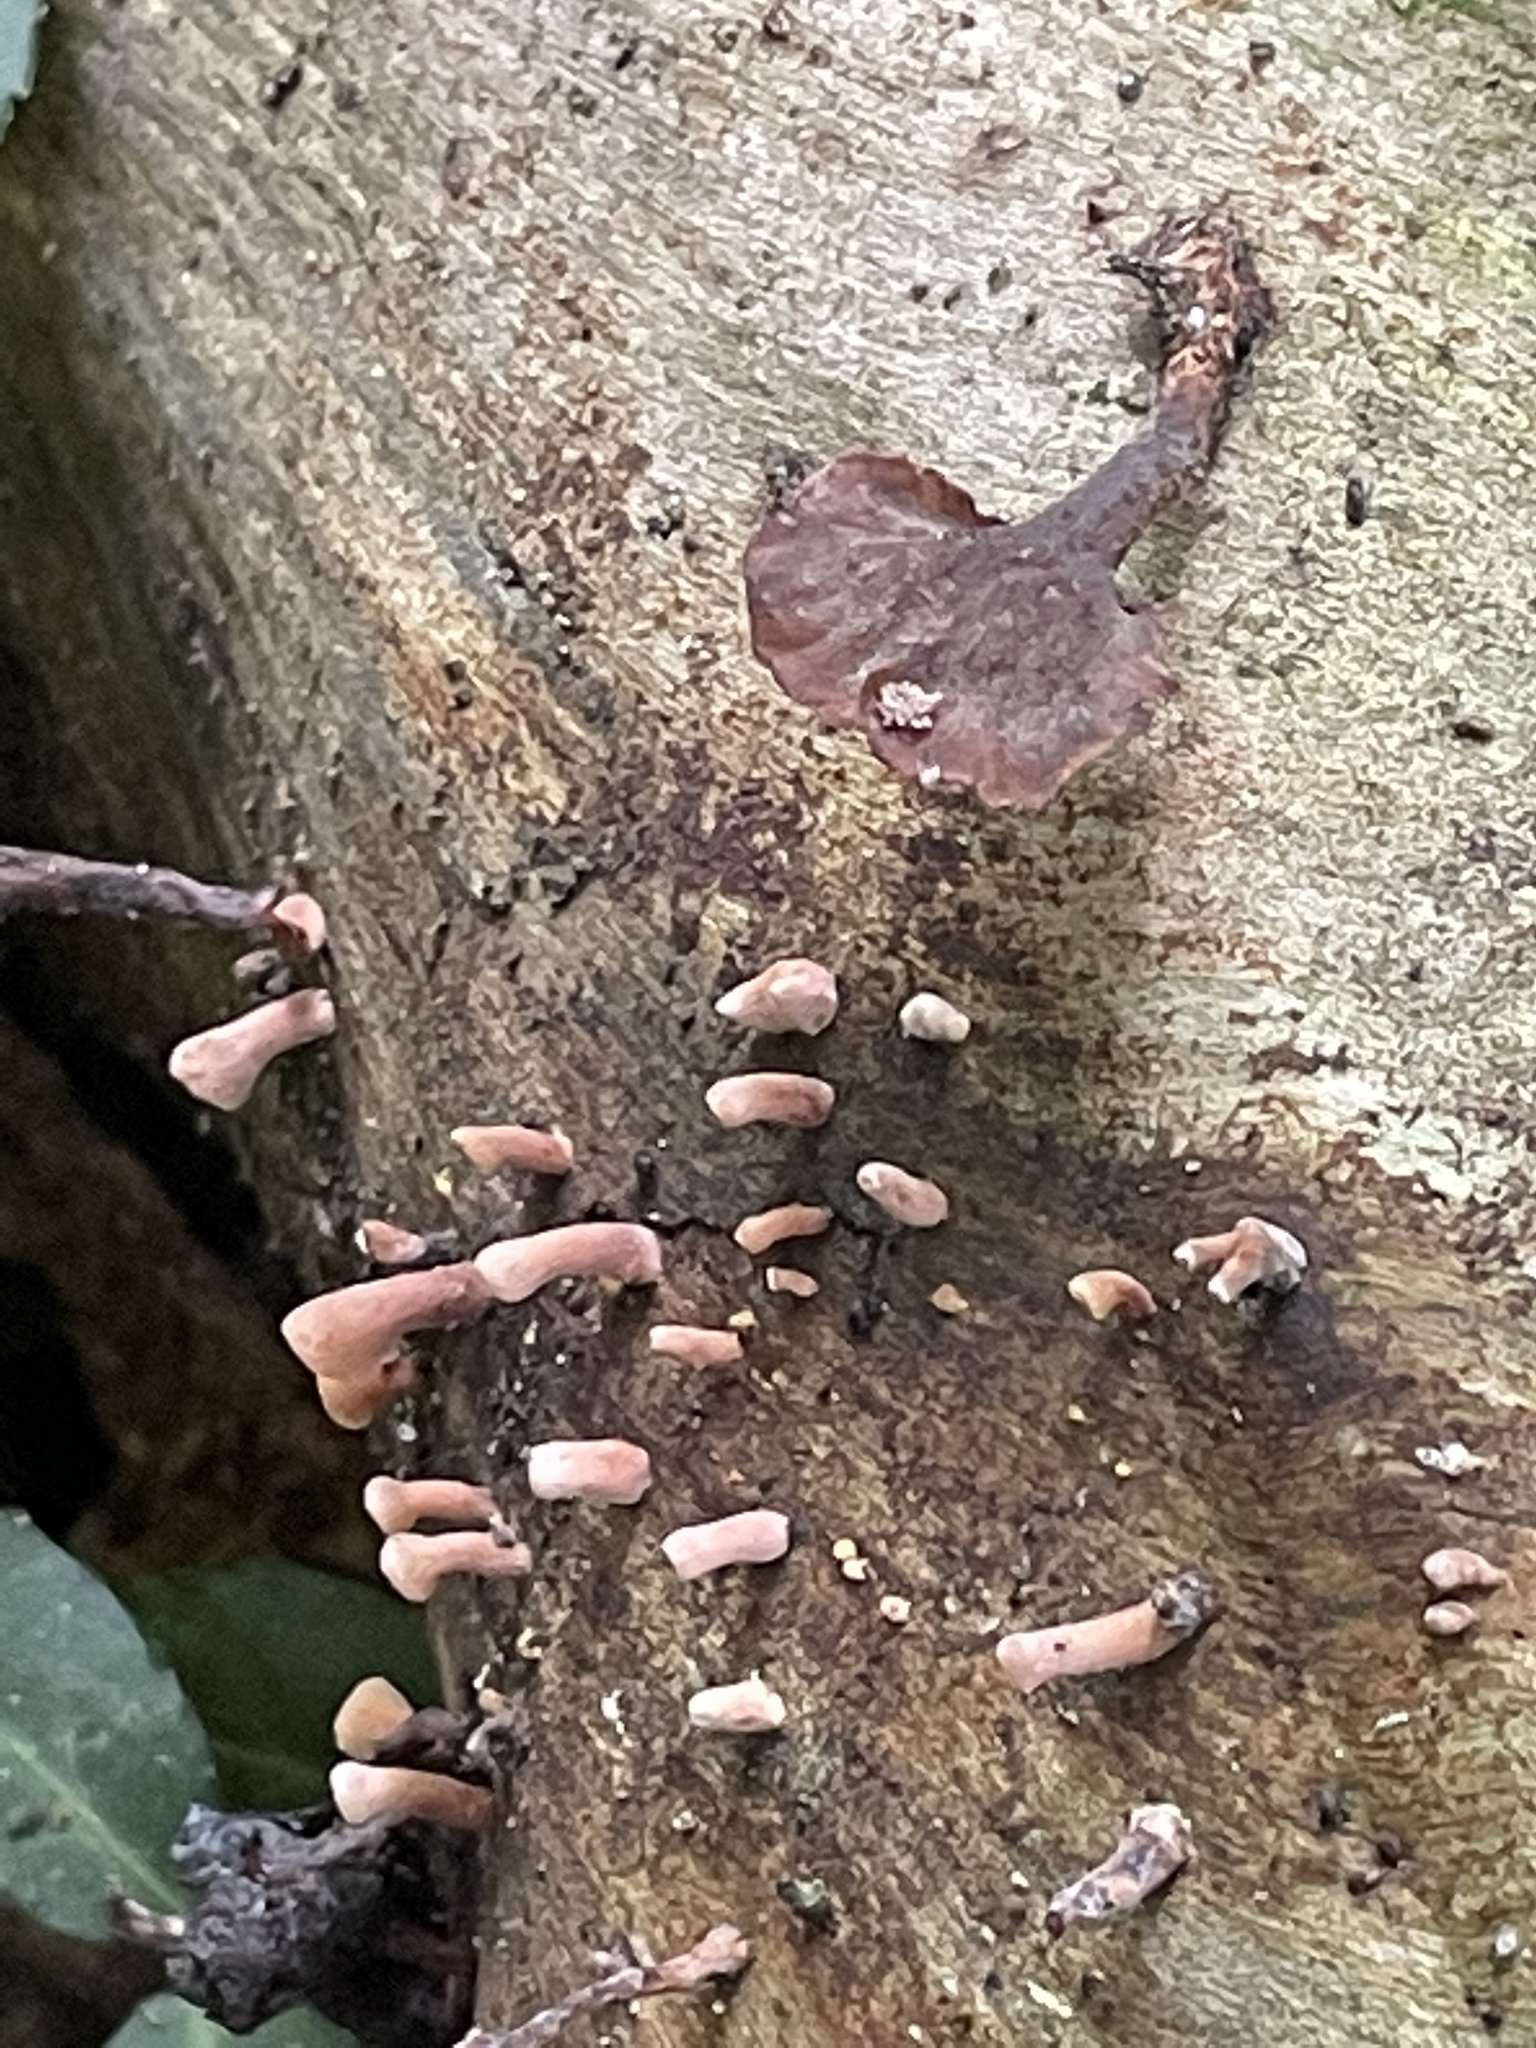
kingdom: Fungi
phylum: Basidiomycota
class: Dacrymycetes
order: Dacrymycetales
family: Dacrymycetaceae
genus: Dacryopinax
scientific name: Dacryopinax elegans
